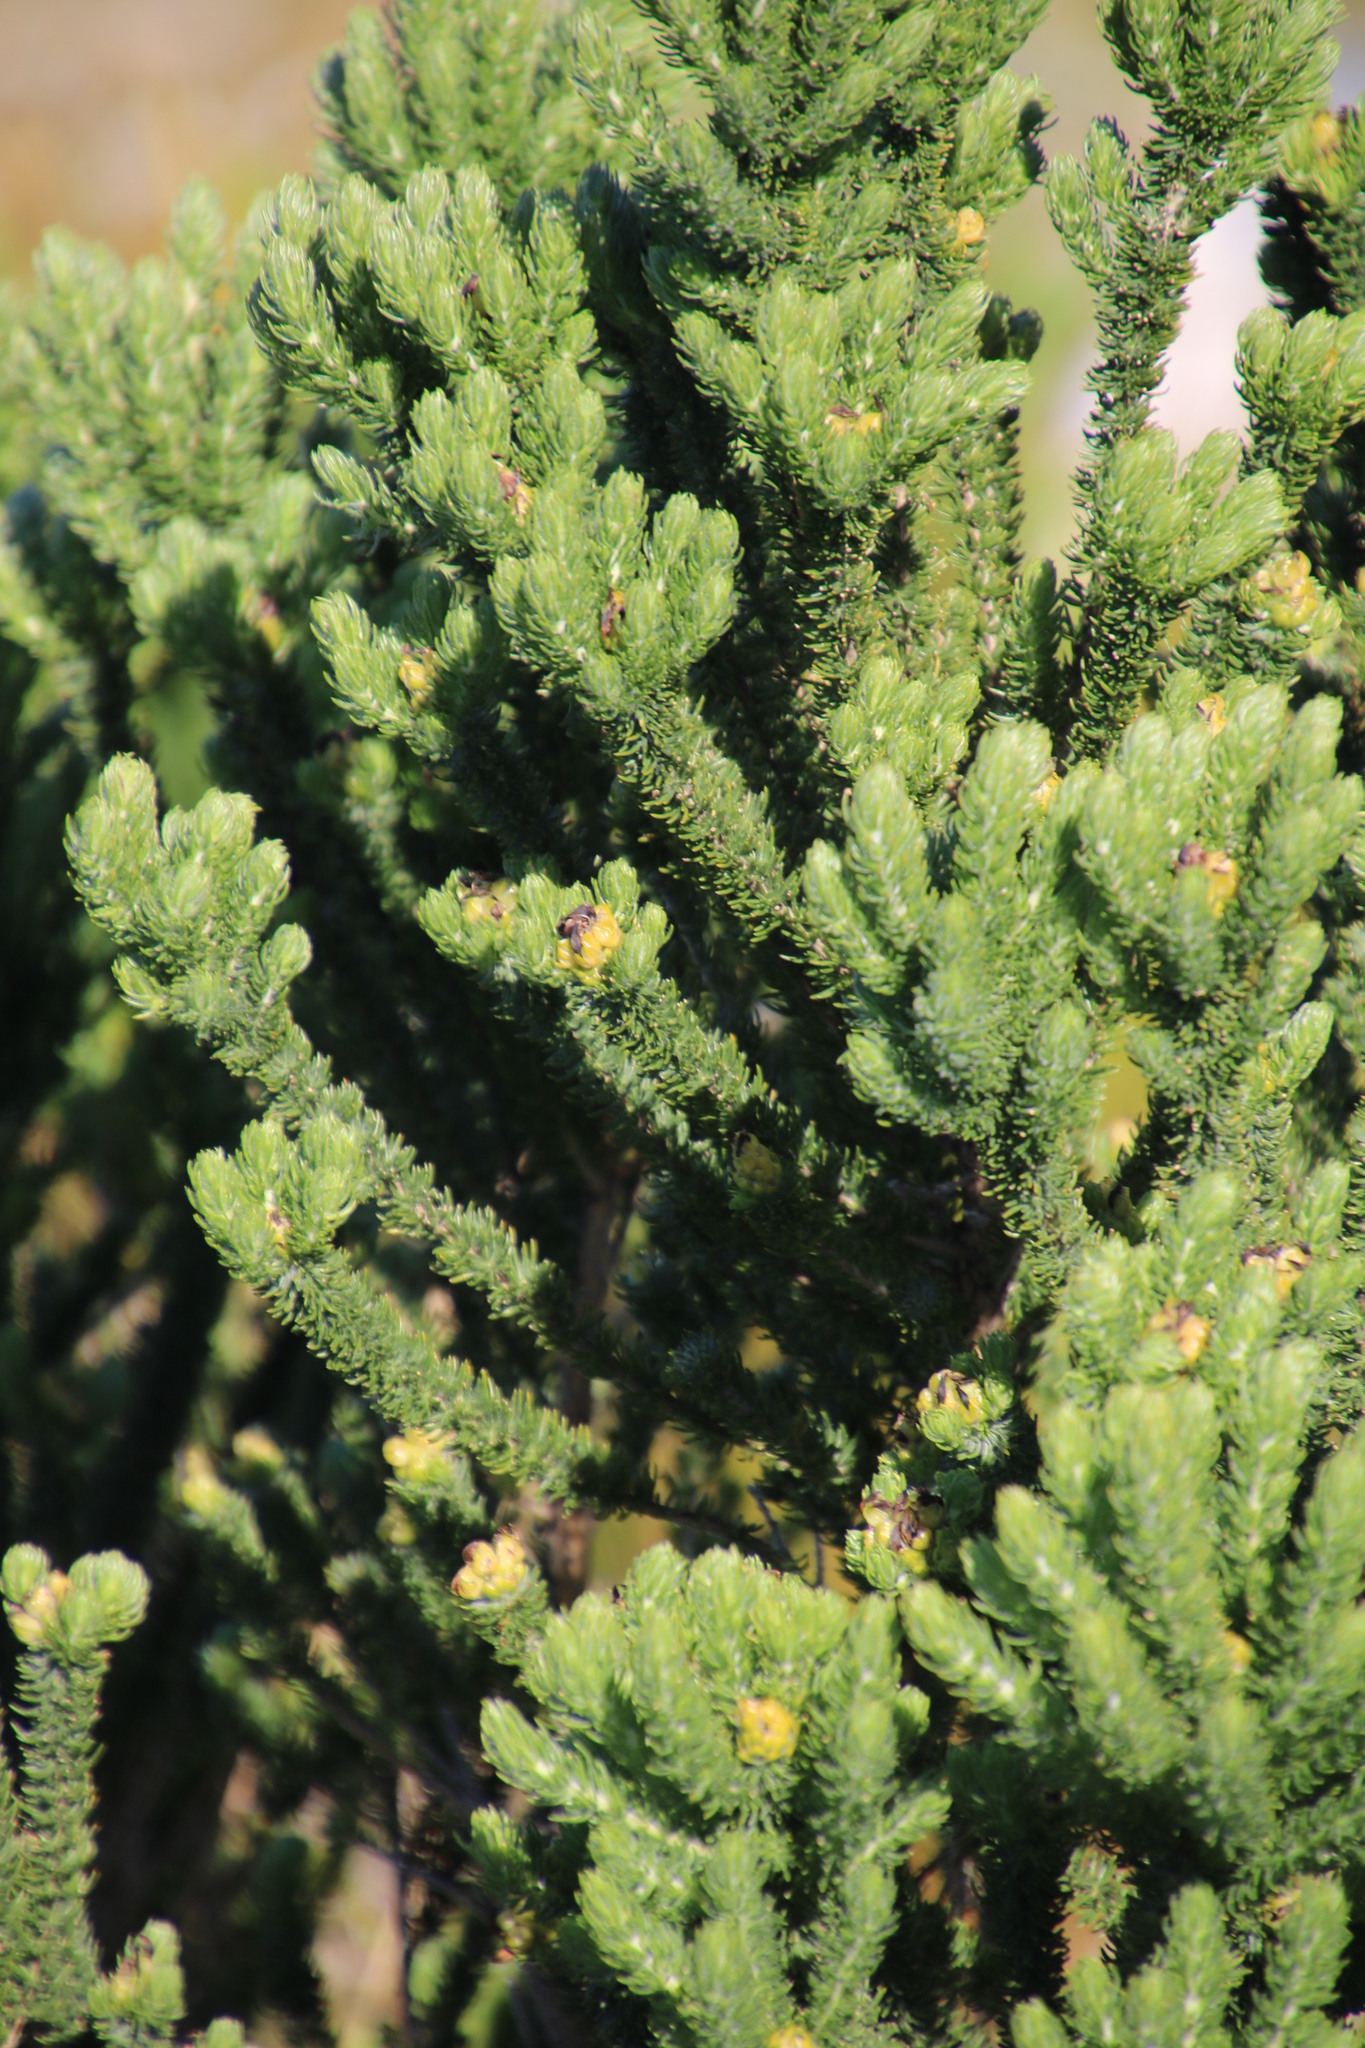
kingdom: Plantae
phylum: Tracheophyta
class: Magnoliopsida
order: Fabales
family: Fabaceae
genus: Aspalathus
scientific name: Aspalathus capitata
